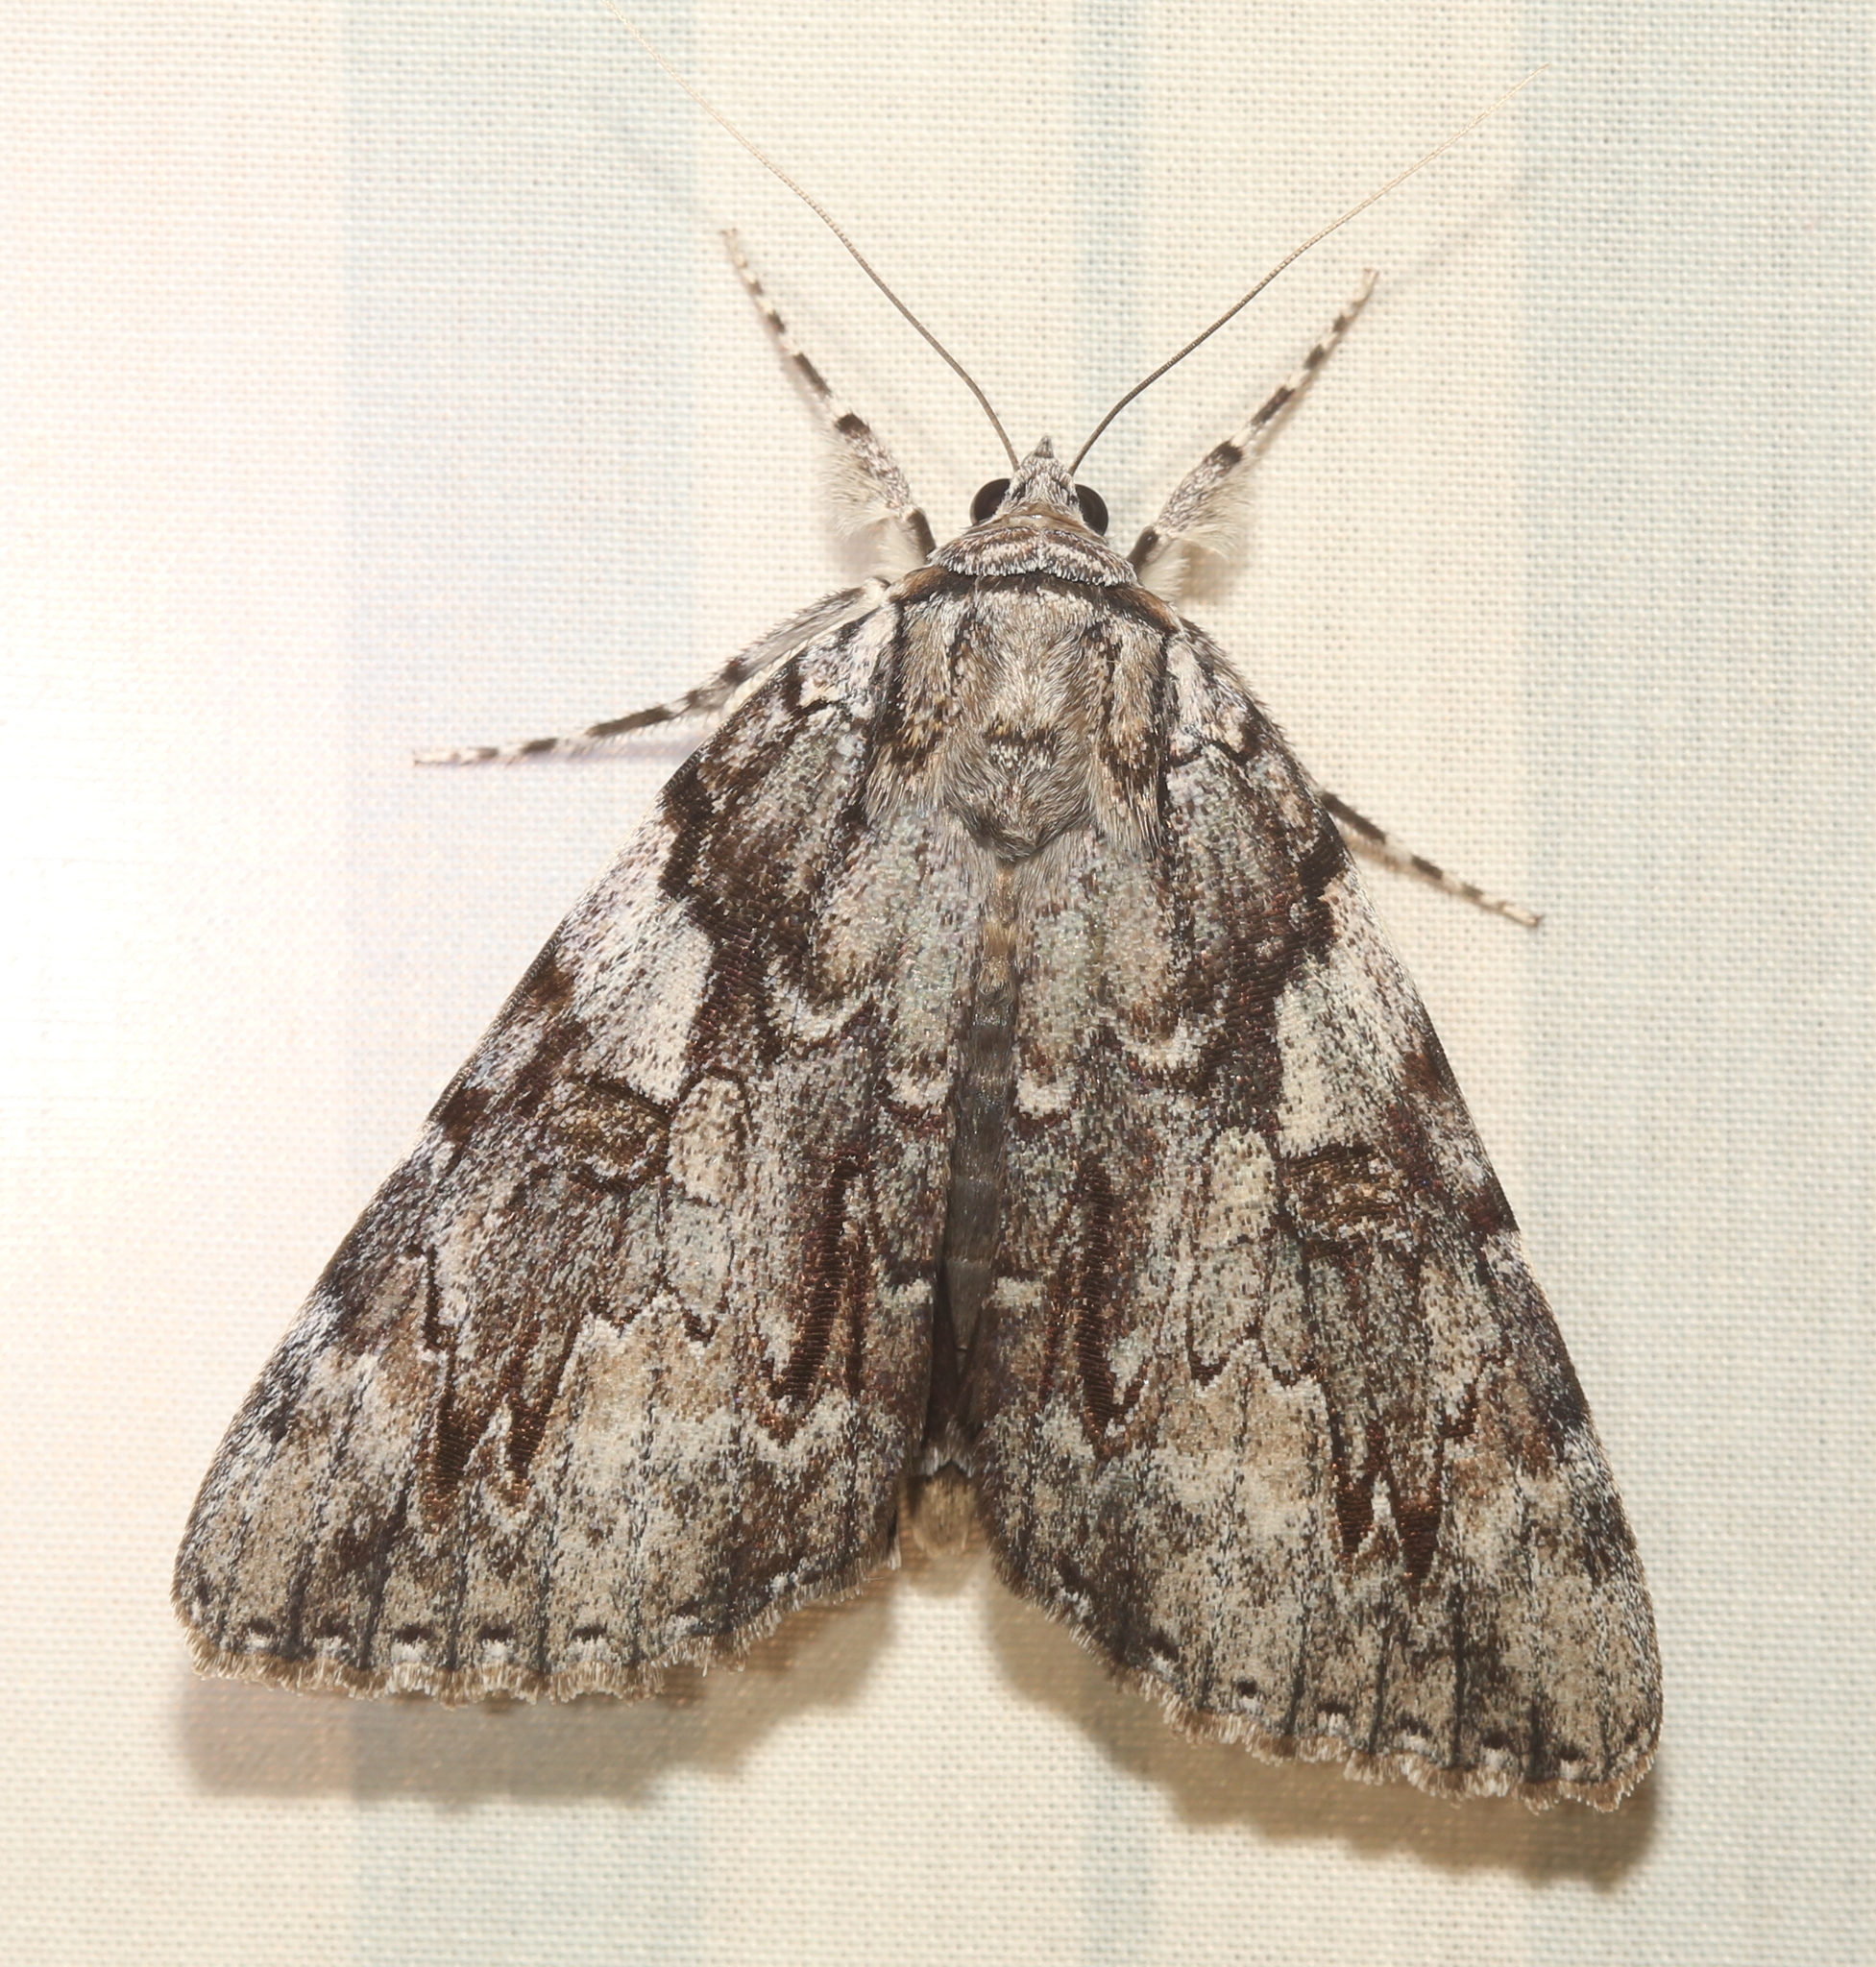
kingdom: Animalia
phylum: Arthropoda
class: Insecta
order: Lepidoptera
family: Erebidae
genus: Catocala
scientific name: Catocala dejecta
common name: Dejected underwing
